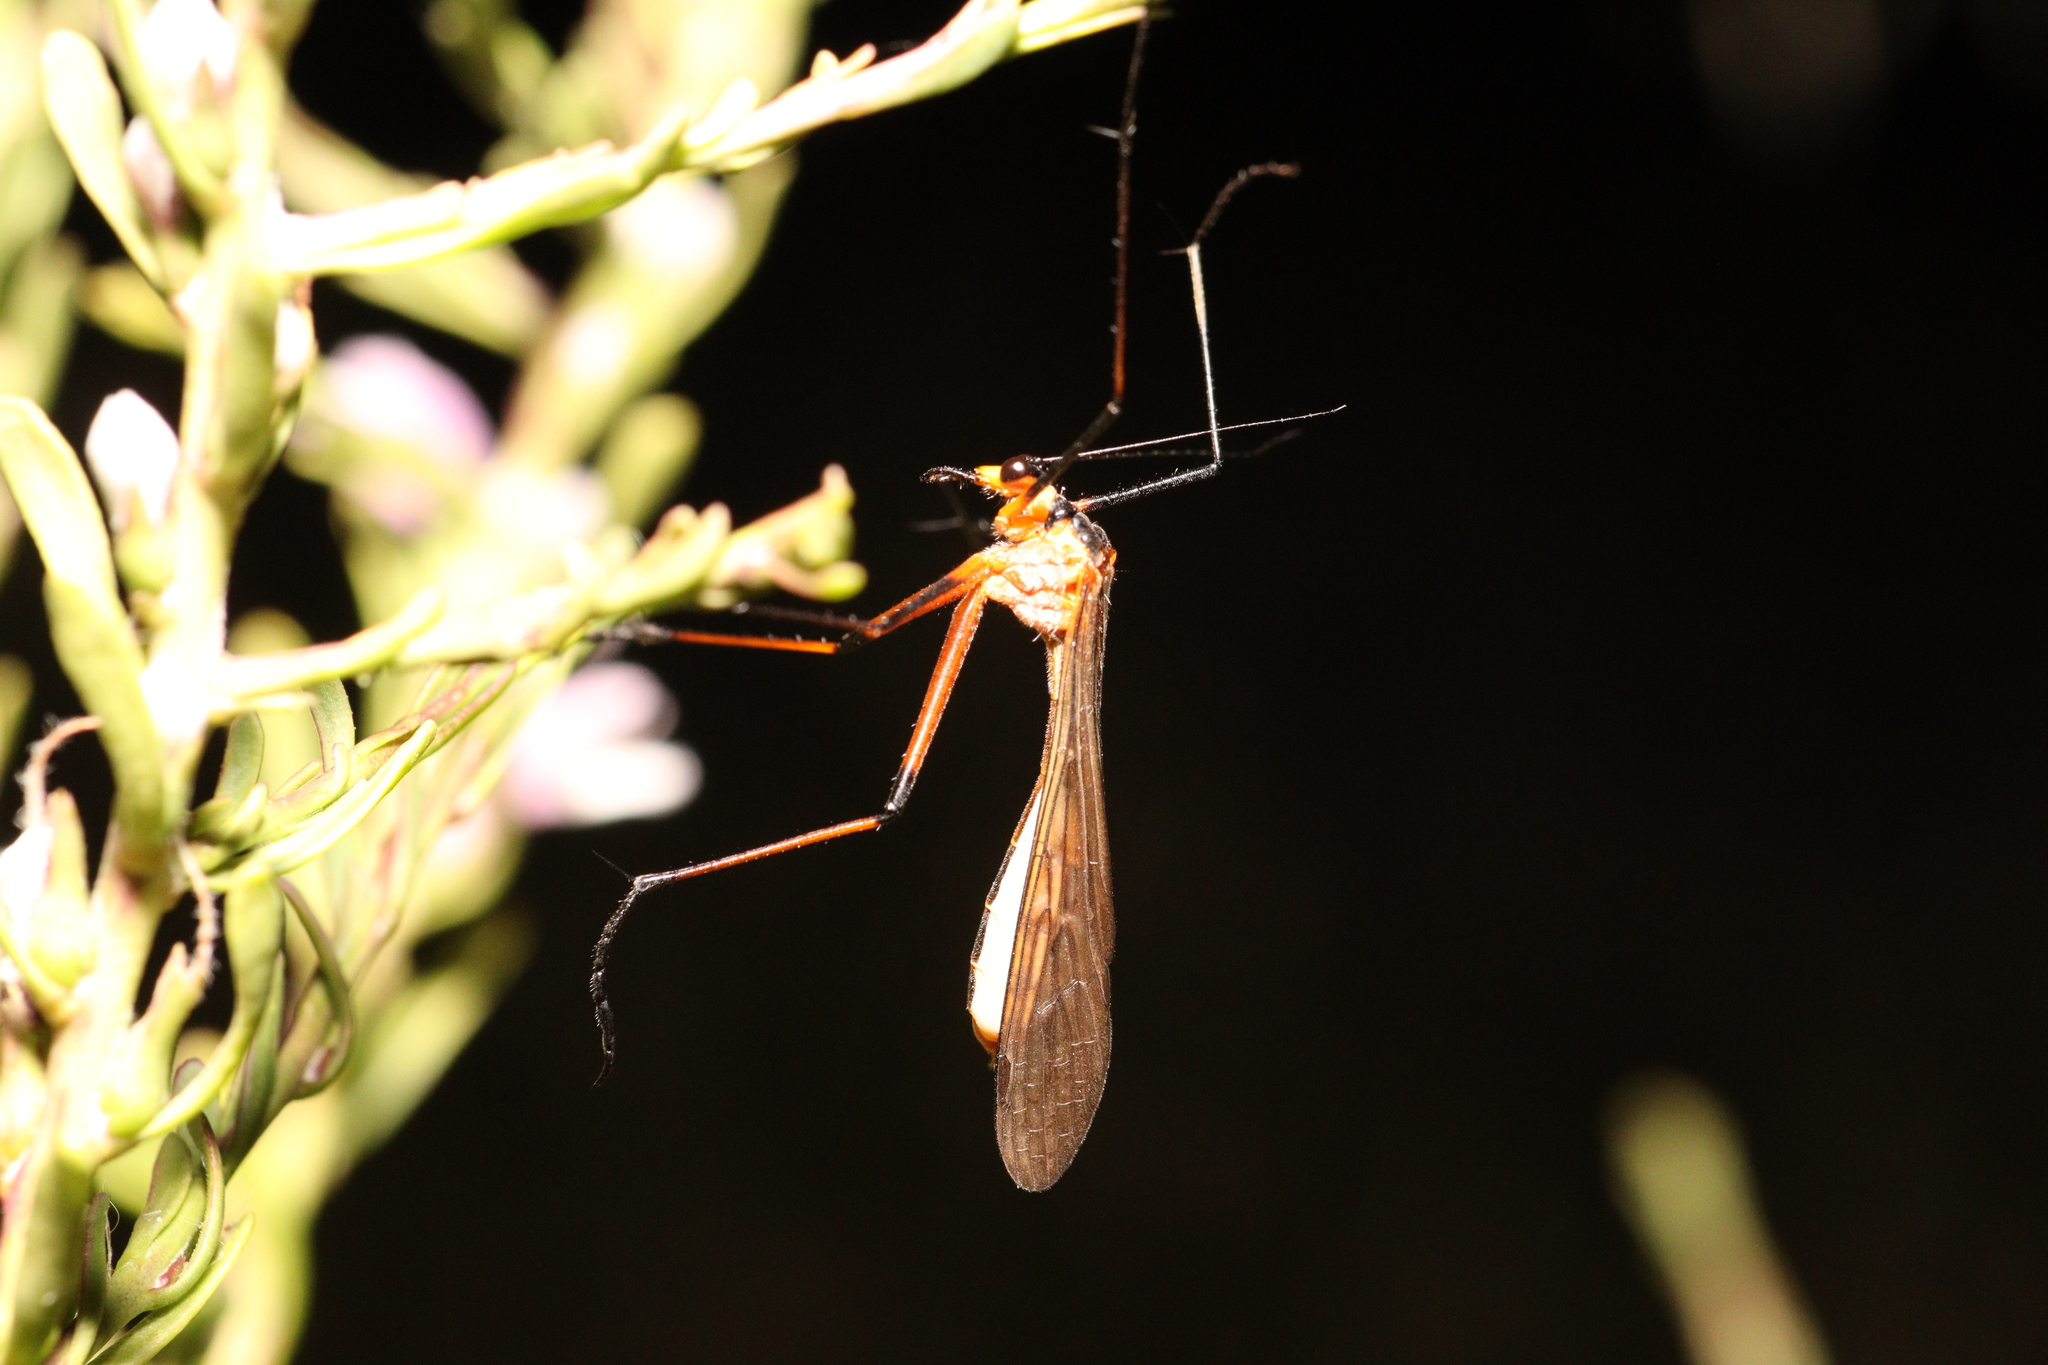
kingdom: Animalia
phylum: Arthropoda
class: Insecta
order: Mecoptera
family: Bittacidae
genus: Harpobittacus
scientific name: Harpobittacus australis
